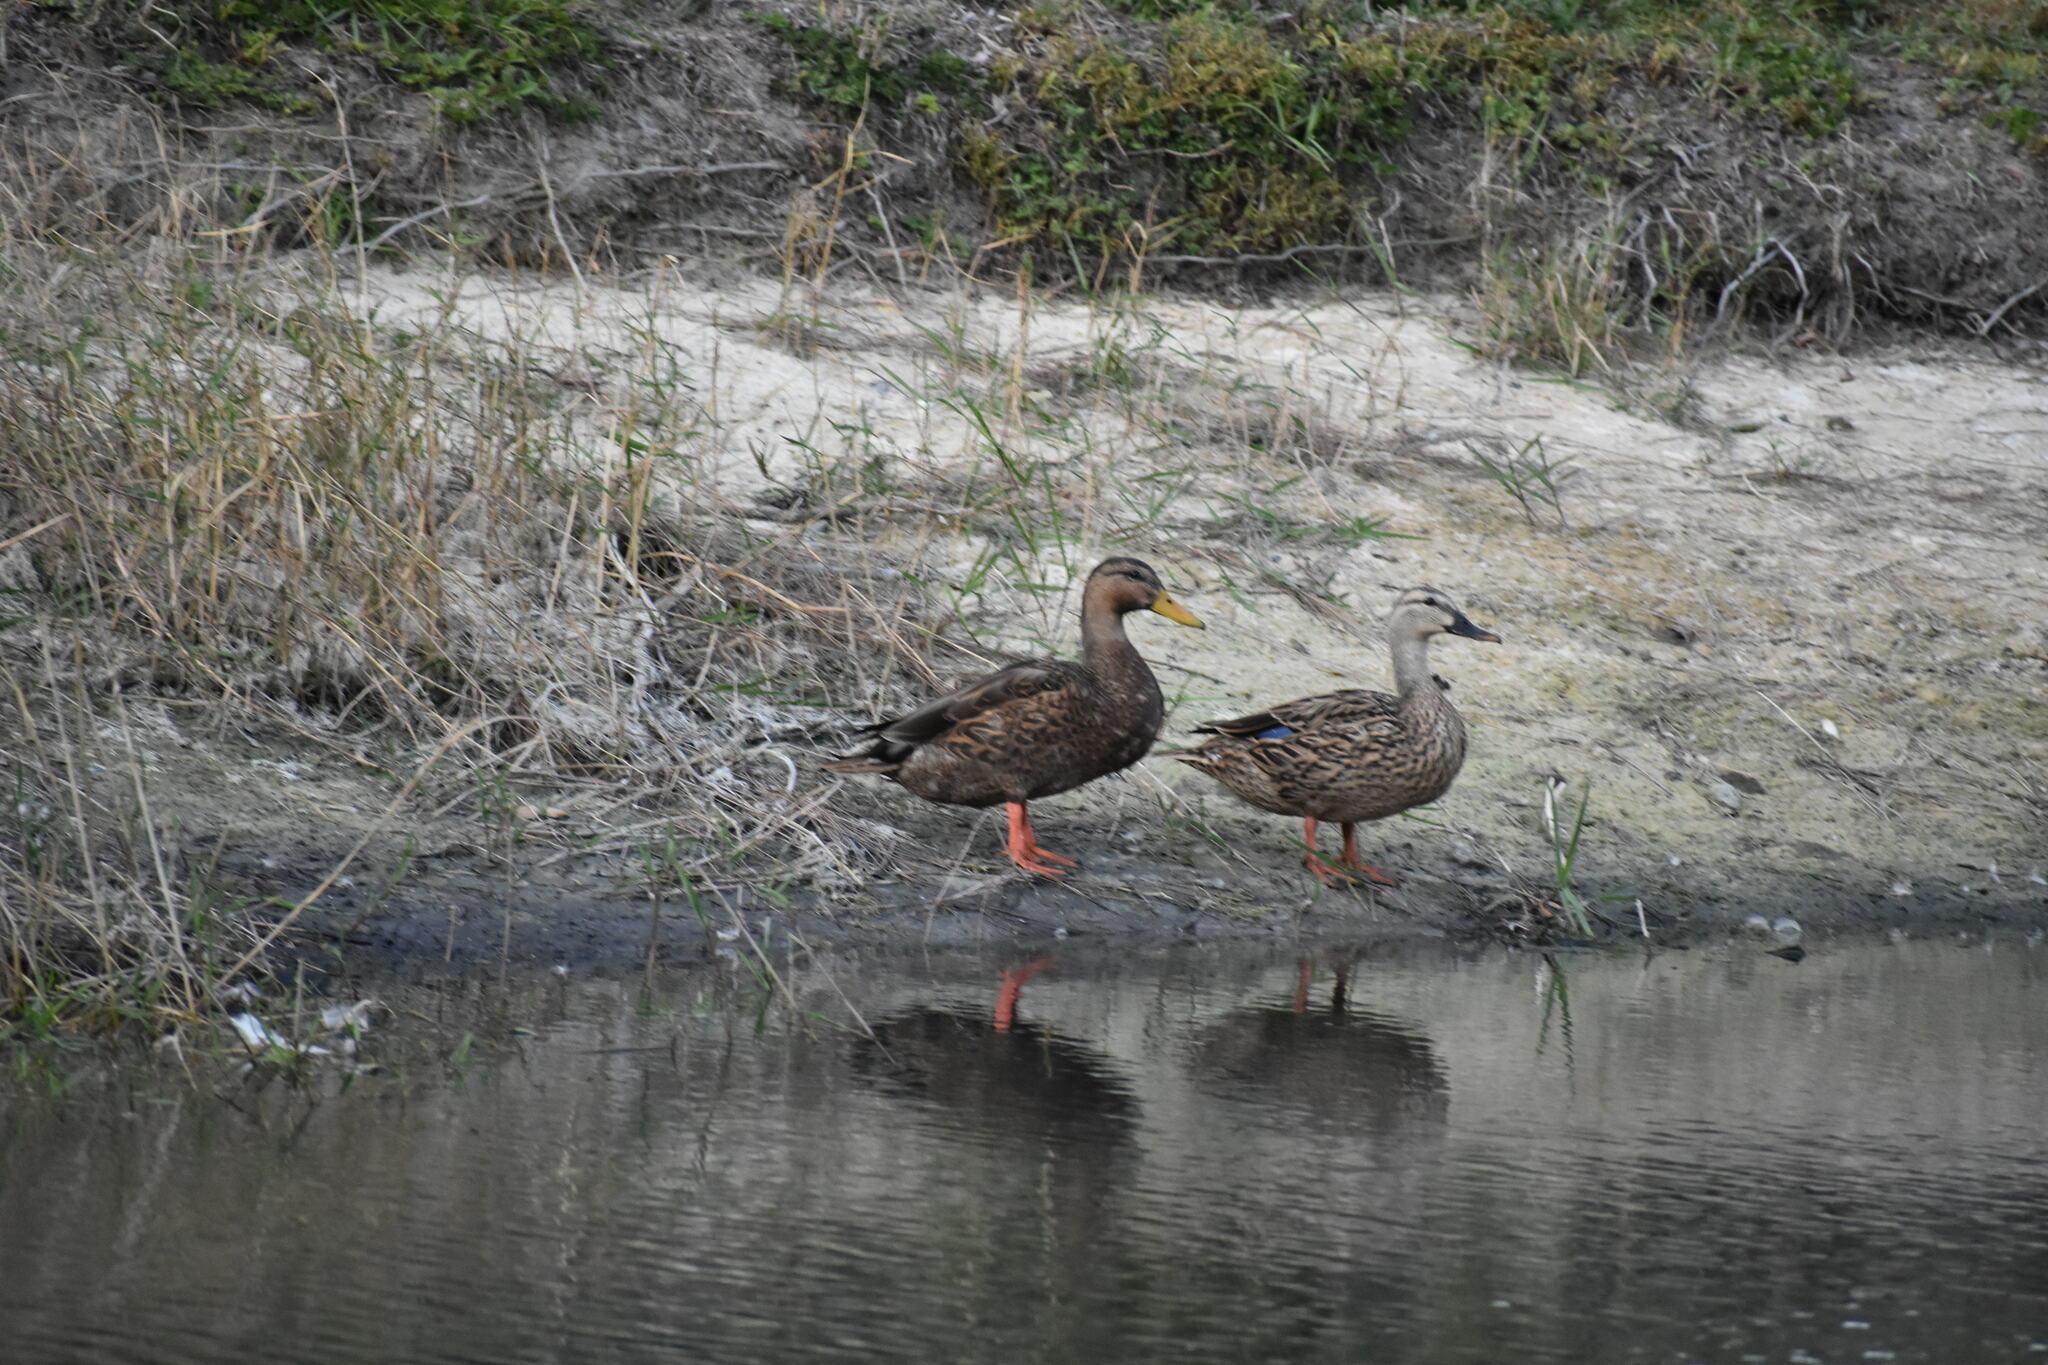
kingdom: Animalia
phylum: Chordata
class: Aves
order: Anseriformes
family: Anatidae
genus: Anas
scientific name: Anas
